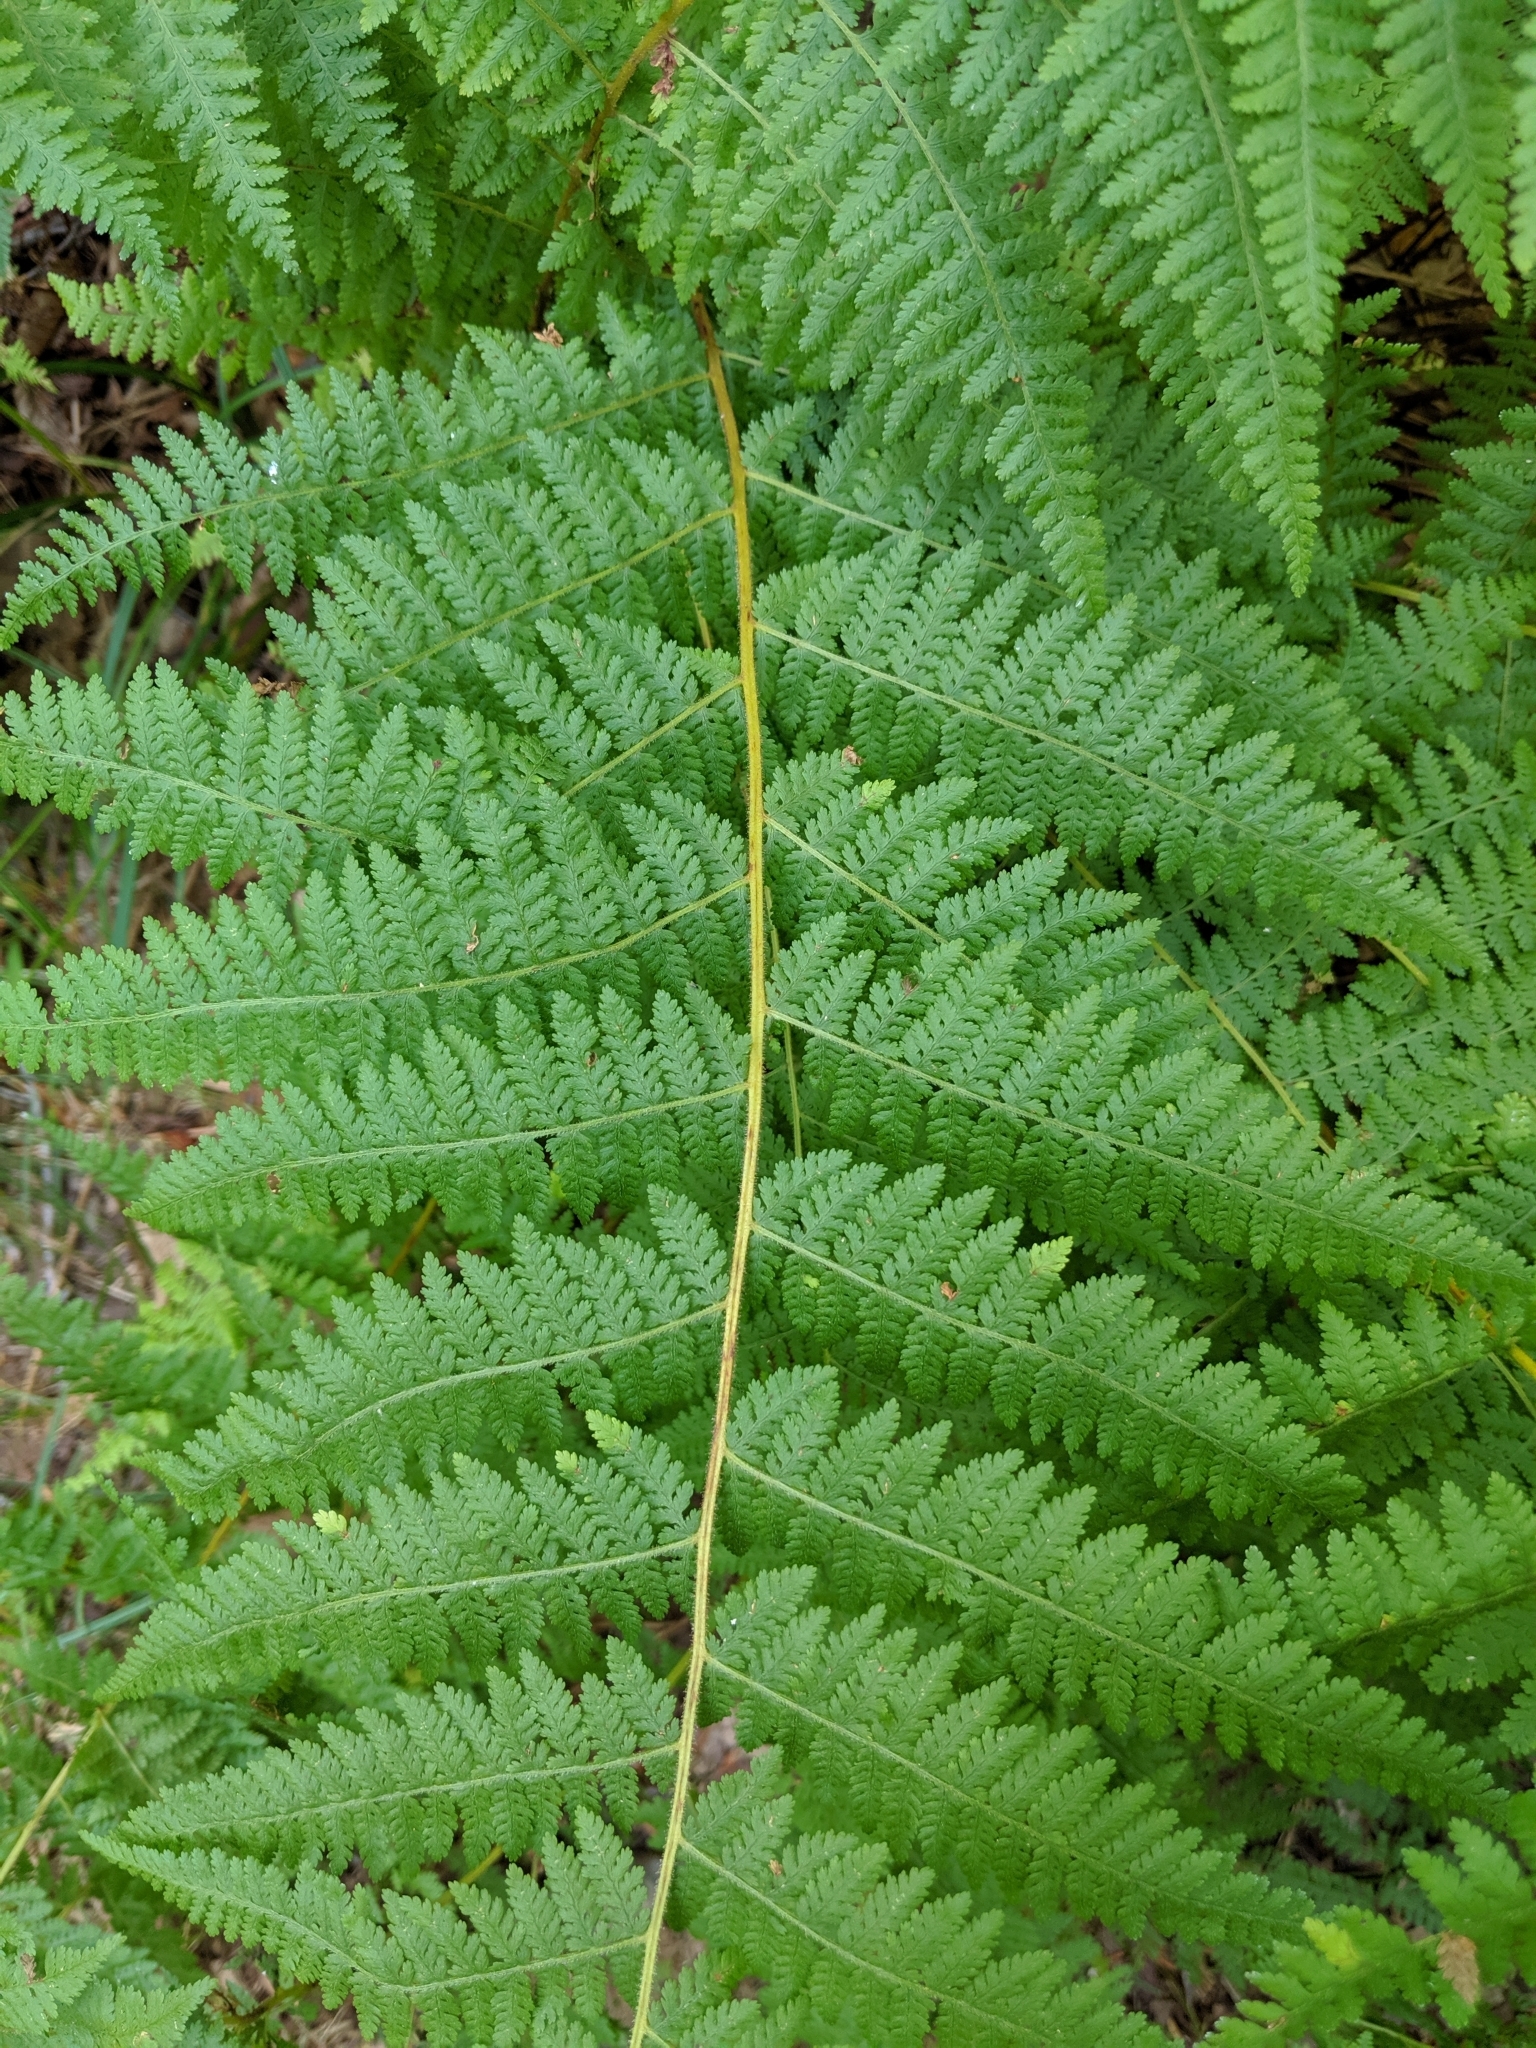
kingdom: Plantae
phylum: Tracheophyta
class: Polypodiopsida
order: Polypodiales
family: Dennstaedtiaceae
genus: Sitobolium
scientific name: Sitobolium punctilobum
